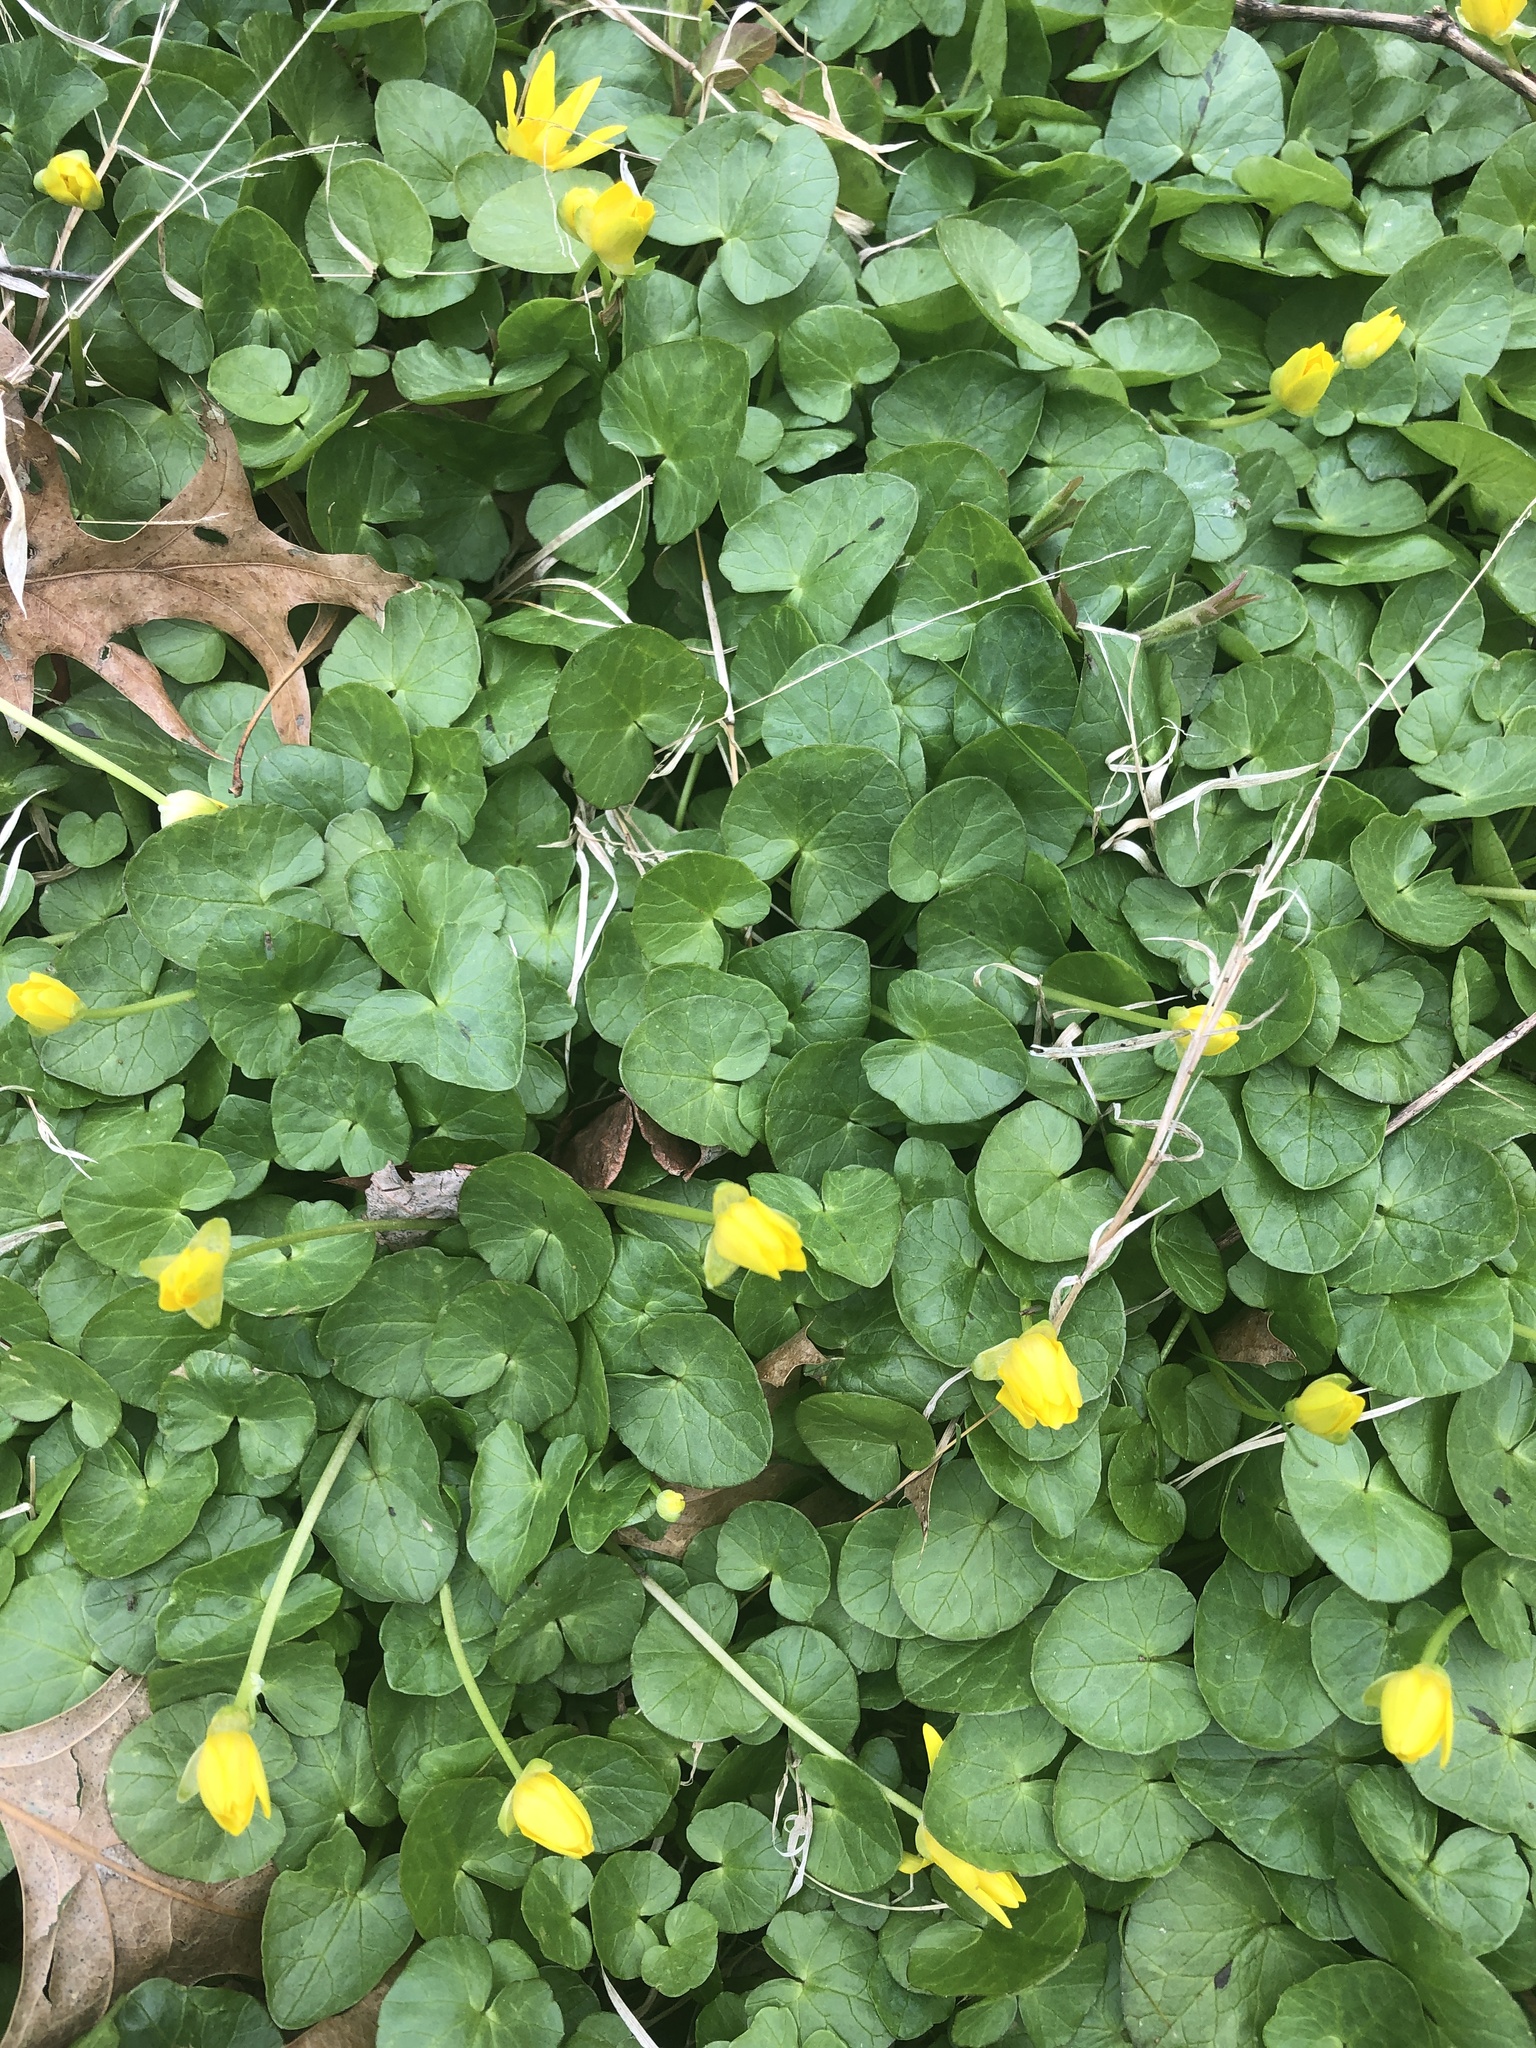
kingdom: Plantae
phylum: Tracheophyta
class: Magnoliopsida
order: Ranunculales
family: Ranunculaceae
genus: Ficaria
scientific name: Ficaria verna
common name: Lesser celandine
